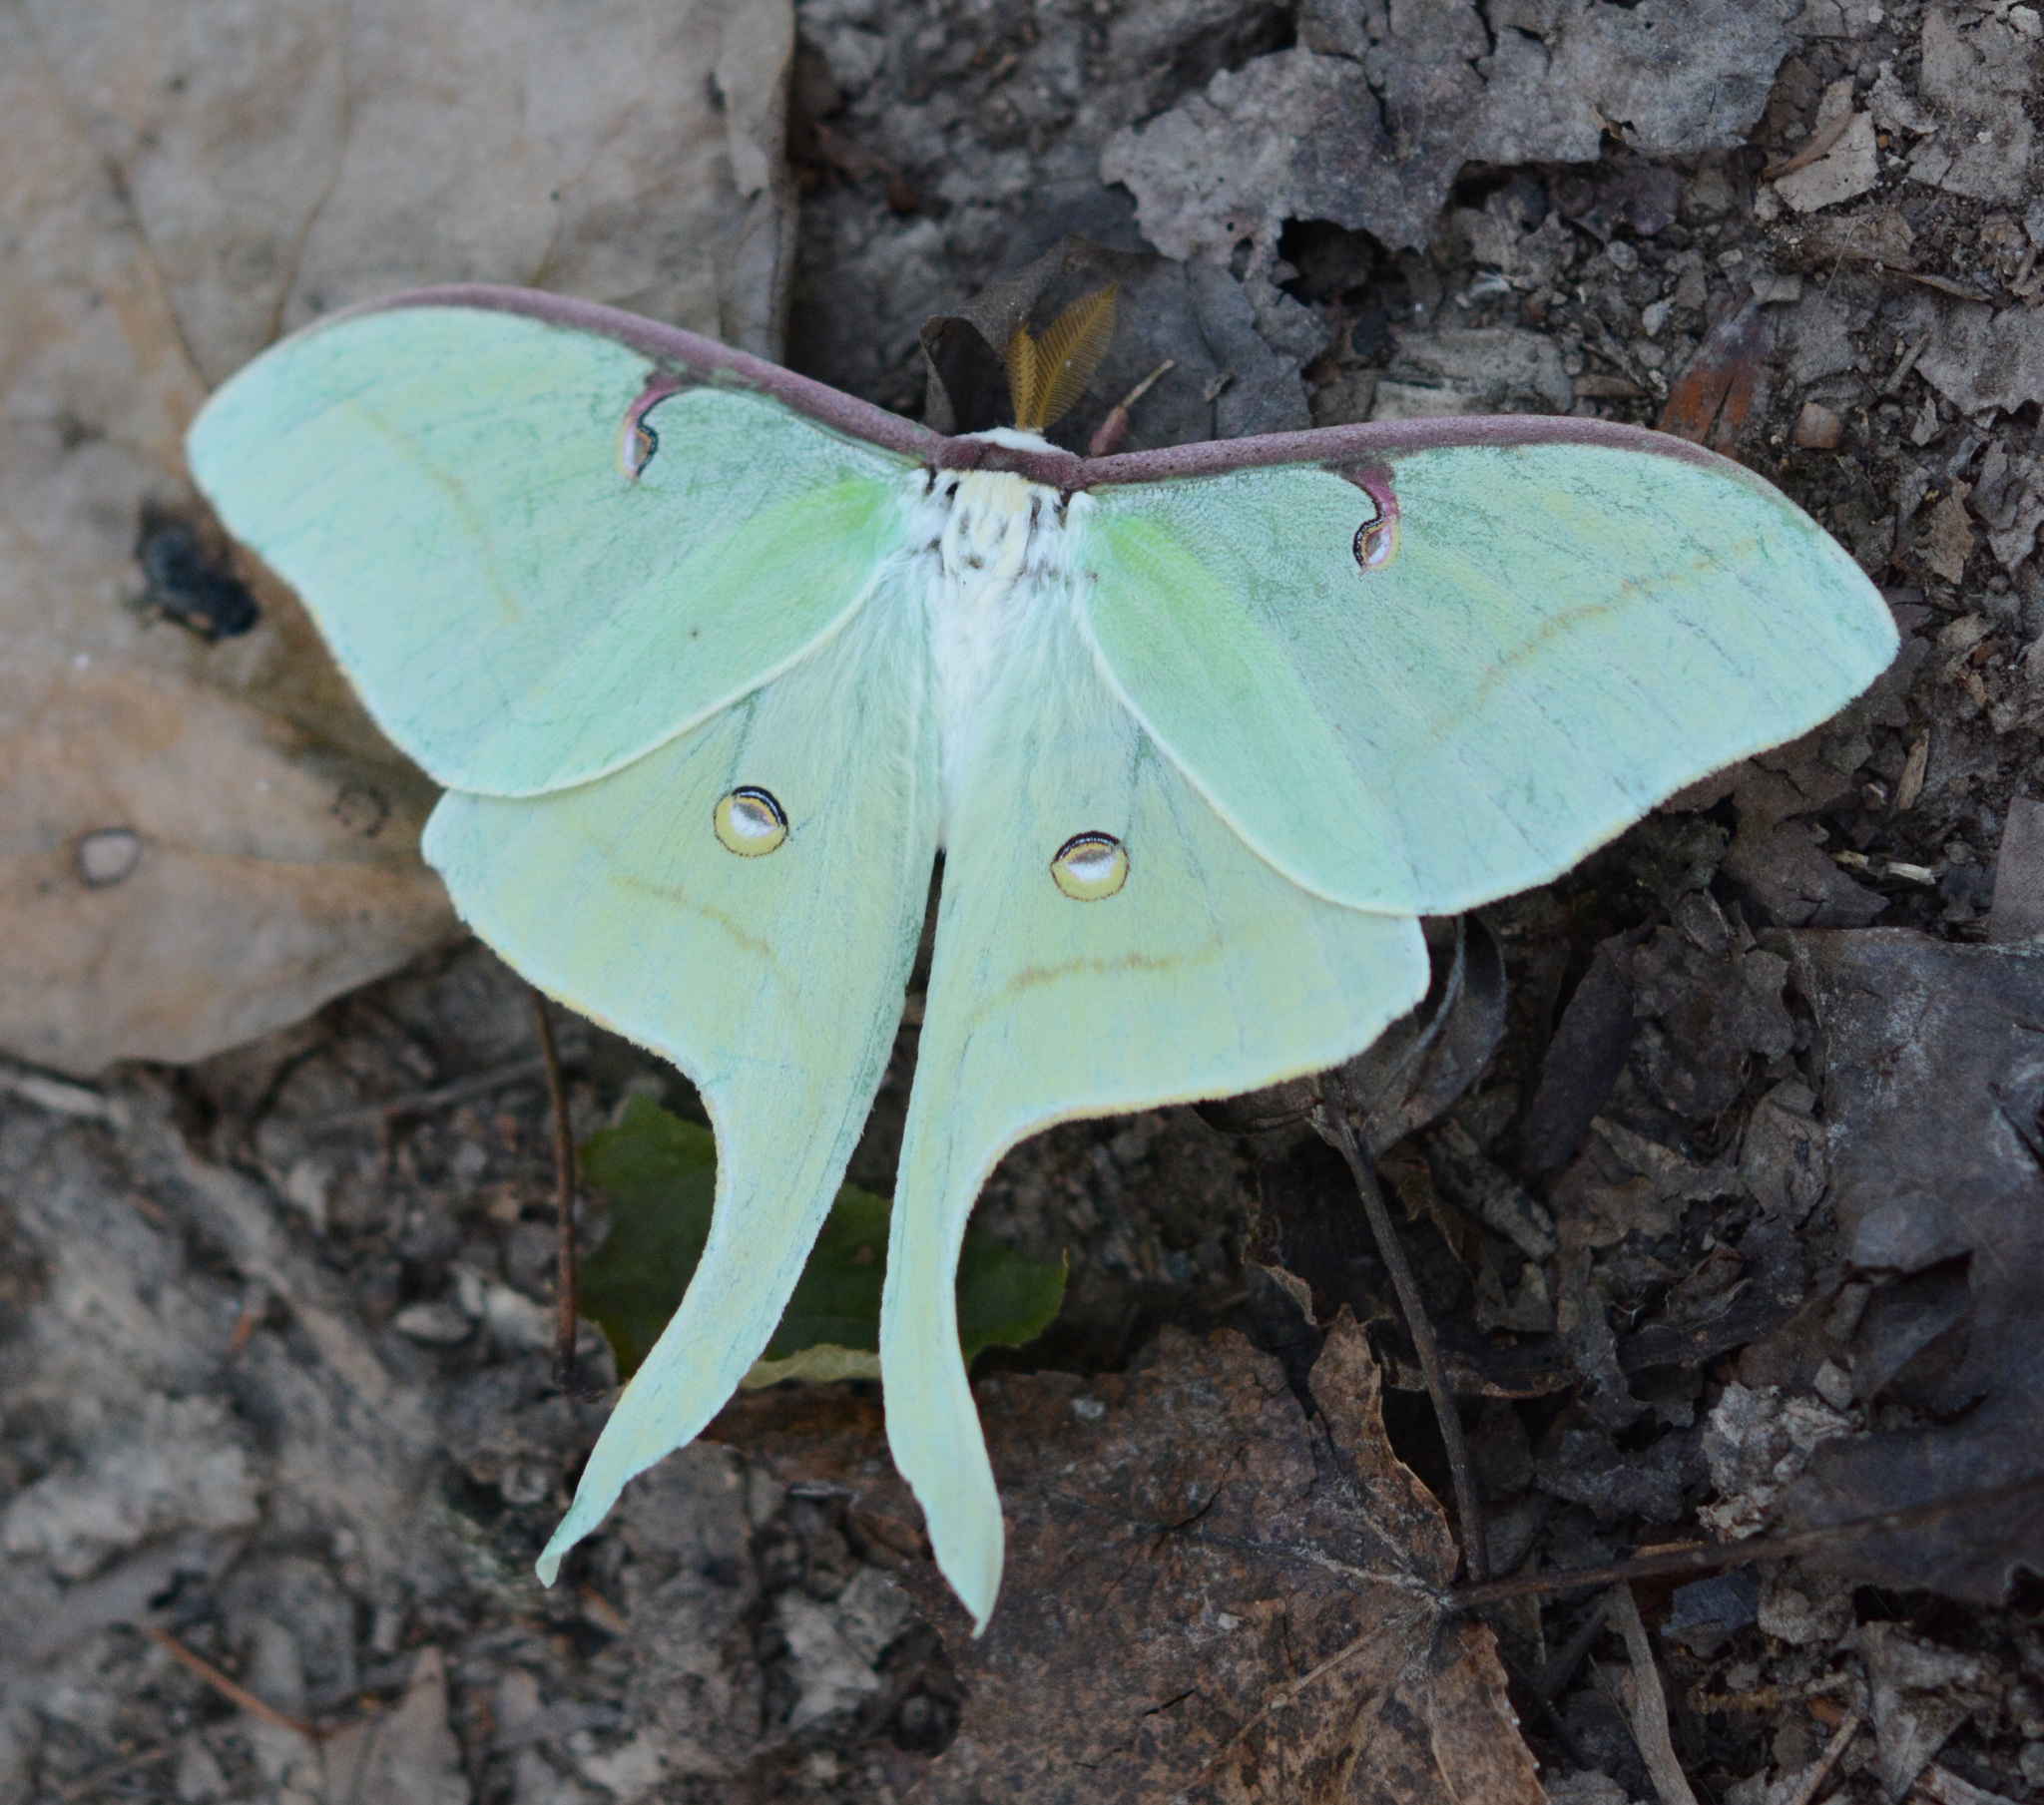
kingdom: Animalia
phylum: Arthropoda
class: Insecta
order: Lepidoptera
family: Saturniidae
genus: Actias
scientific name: Actias luna
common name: Luna moth
